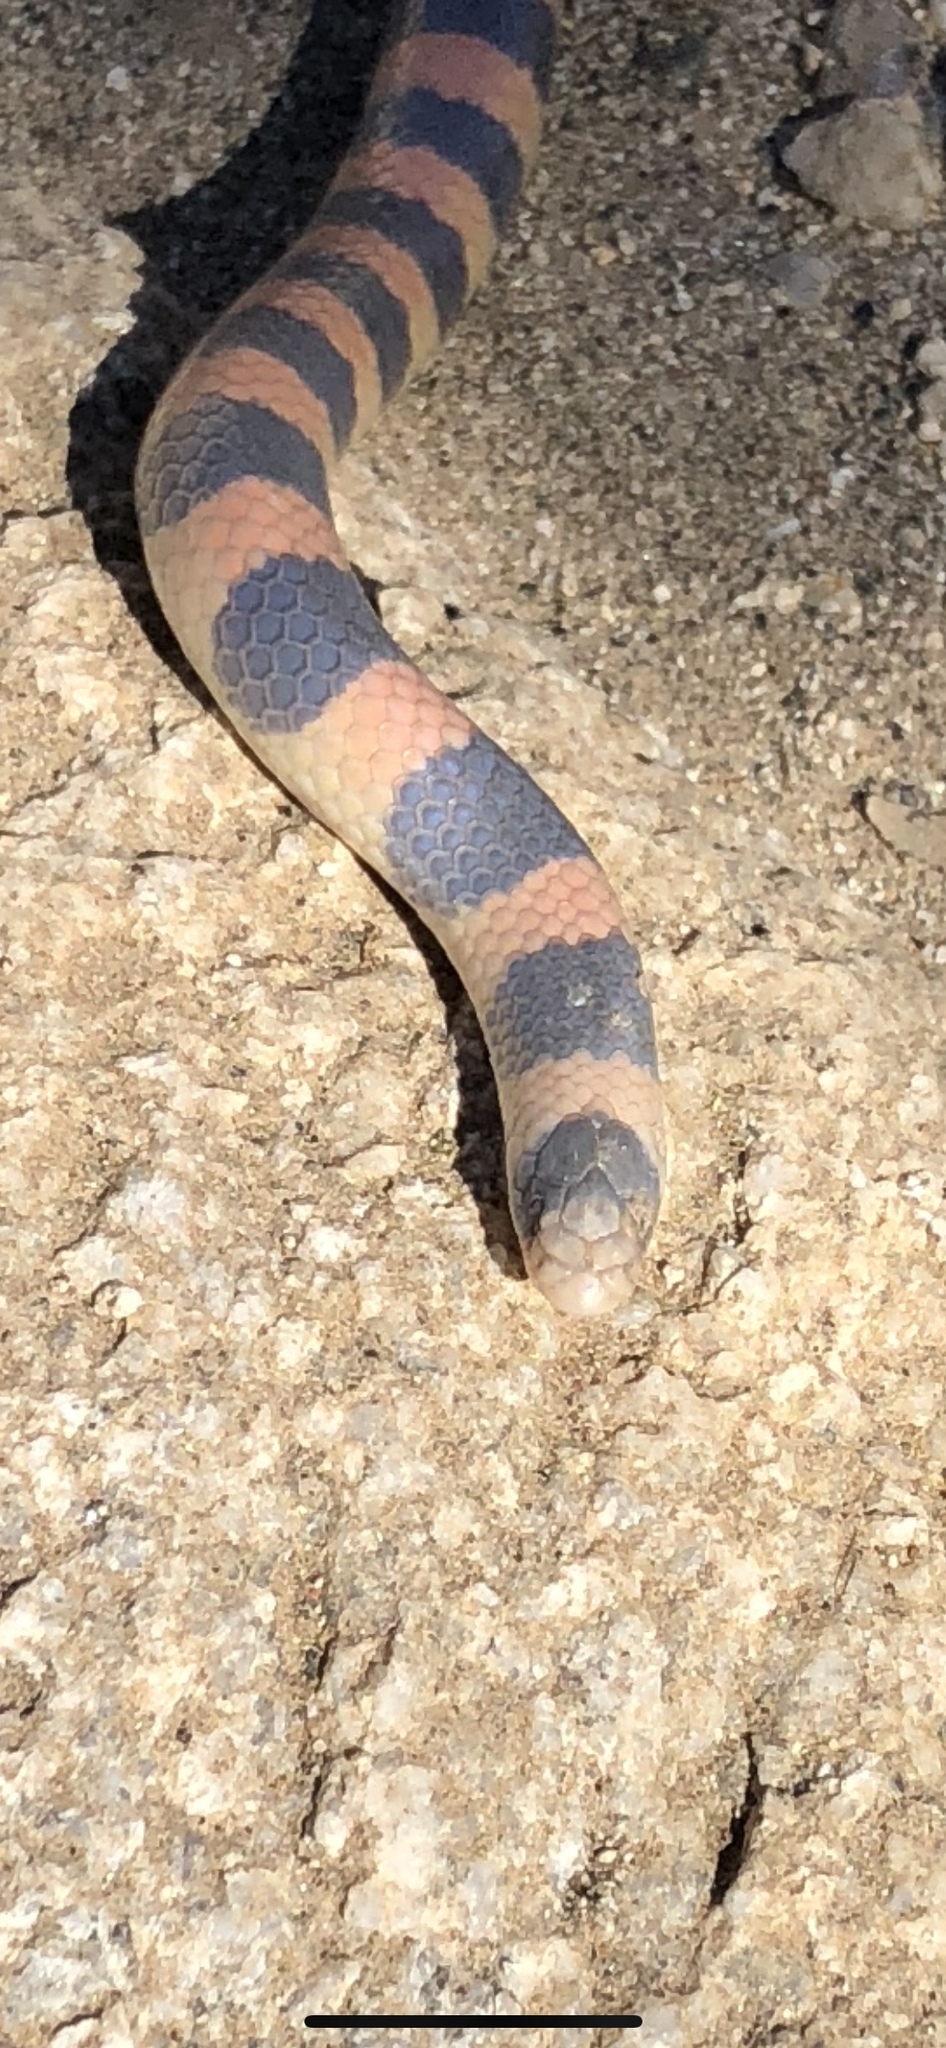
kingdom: Animalia
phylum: Chordata
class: Squamata
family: Colubridae
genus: Sonora
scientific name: Sonora cincta
